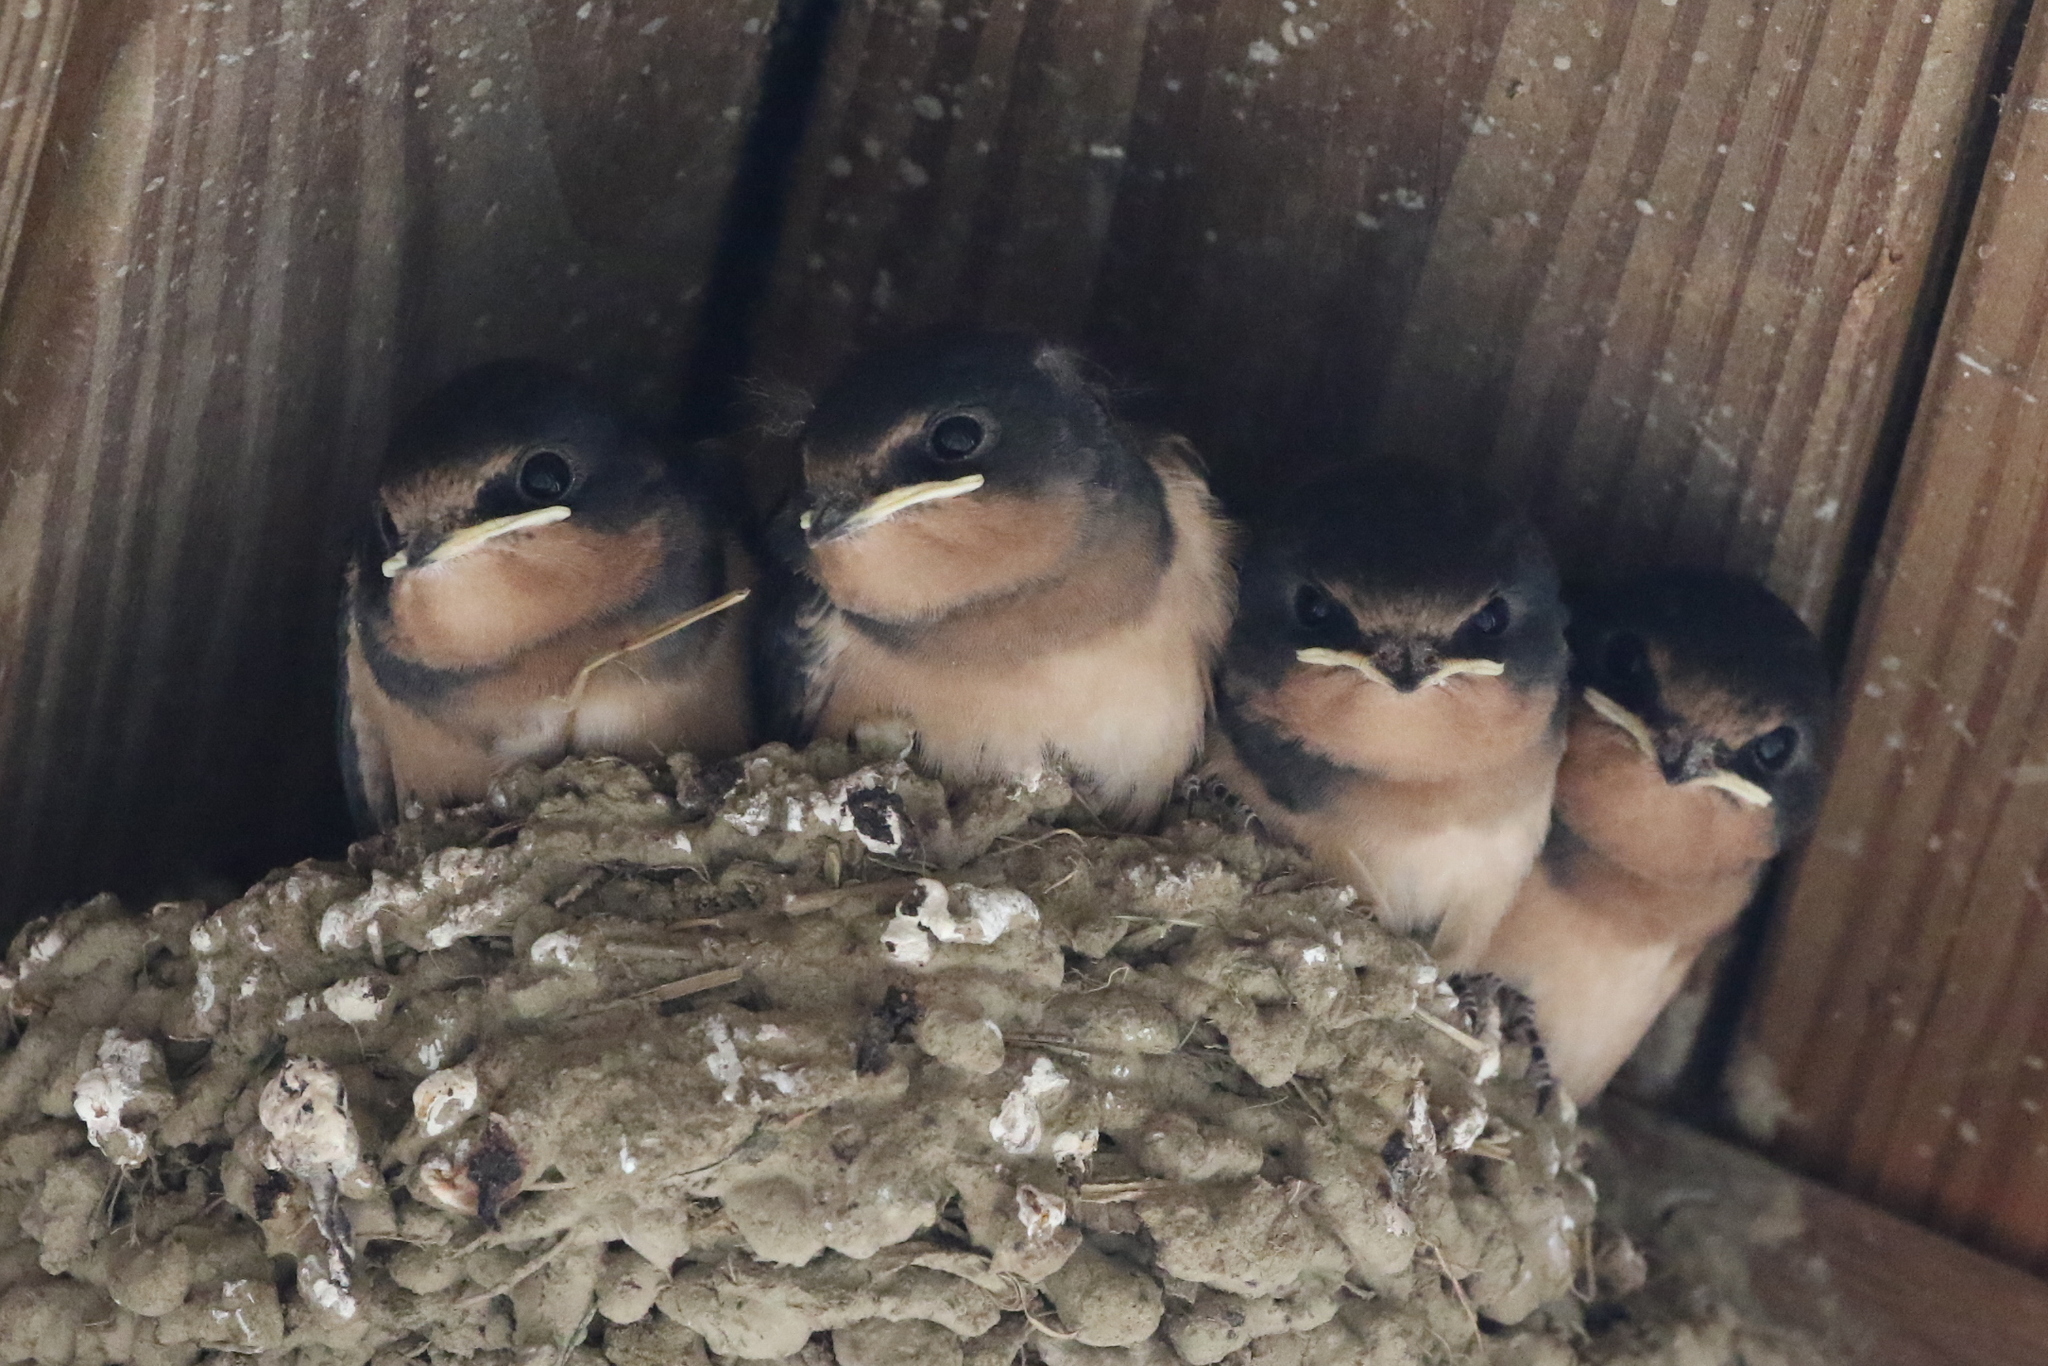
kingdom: Animalia
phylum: Chordata
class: Aves
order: Passeriformes
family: Hirundinidae
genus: Hirundo
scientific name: Hirundo rustica
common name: Barn swallow
